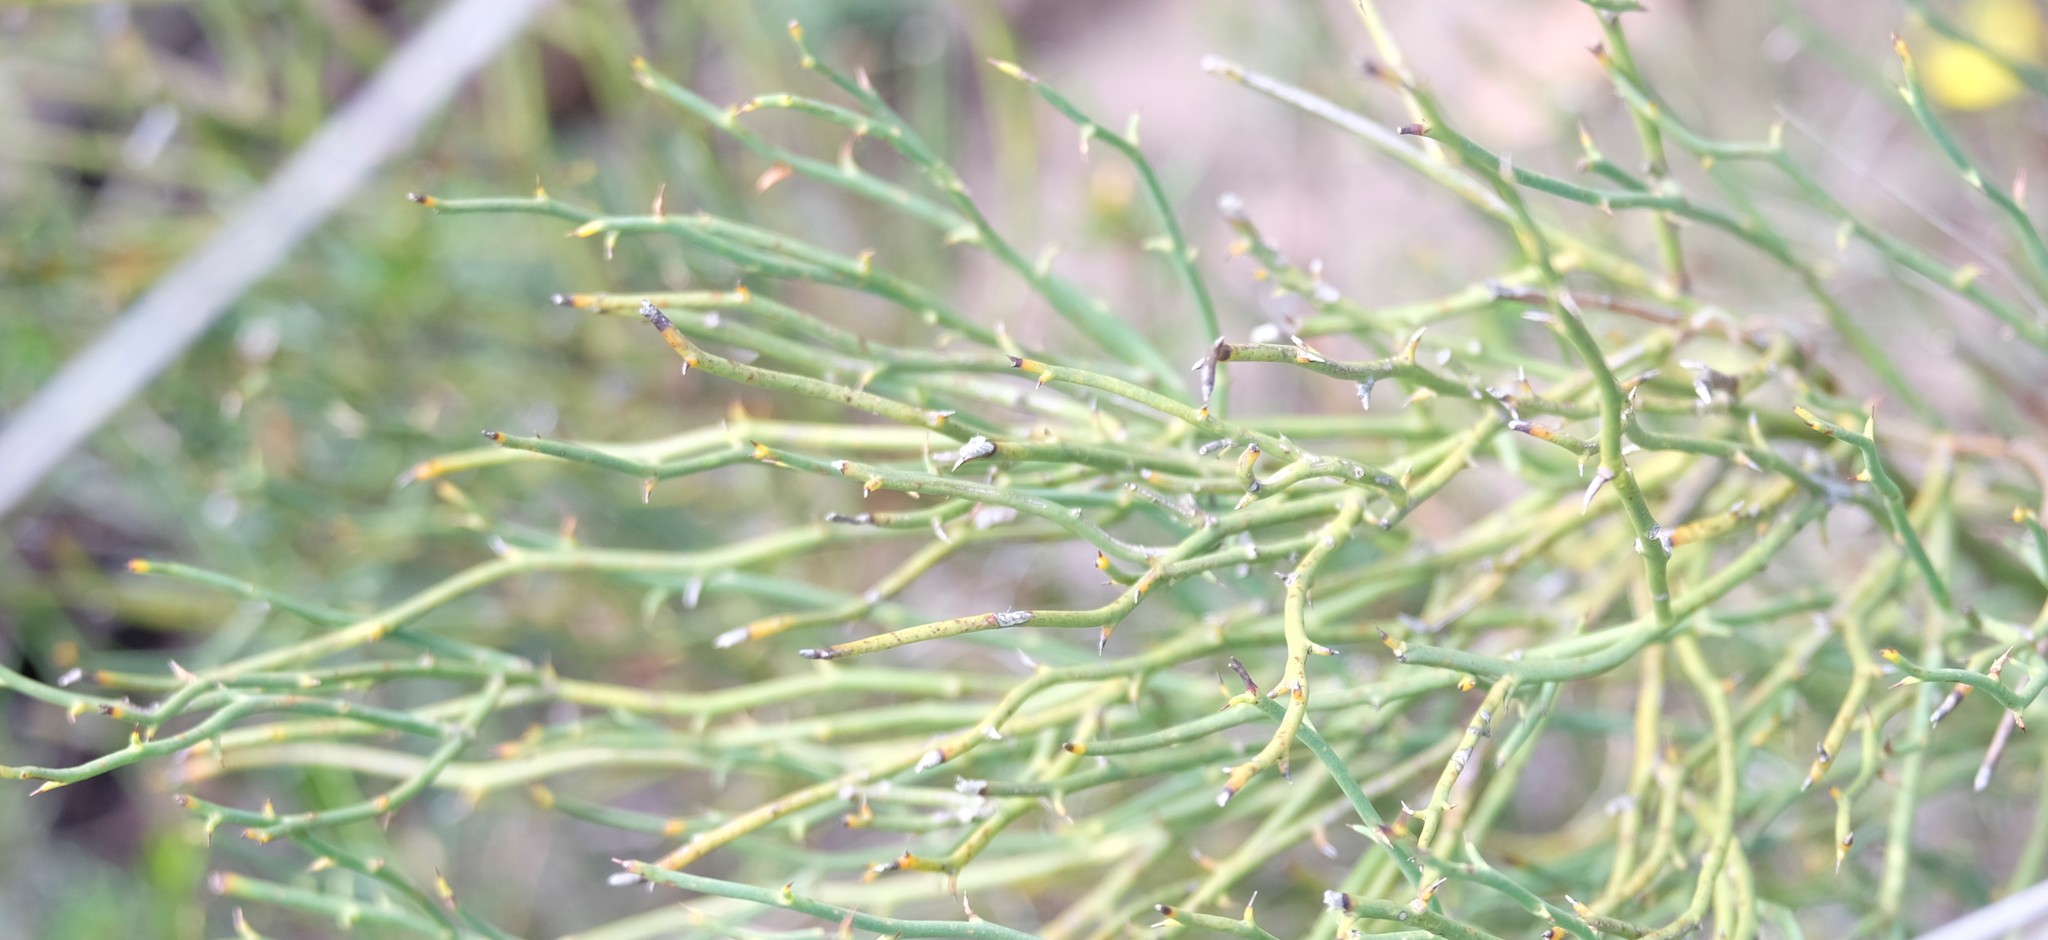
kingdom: Plantae
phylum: Tracheophyta
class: Magnoliopsida
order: Fabales
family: Fabaceae
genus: Daviesia
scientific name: Daviesia brevifolia
